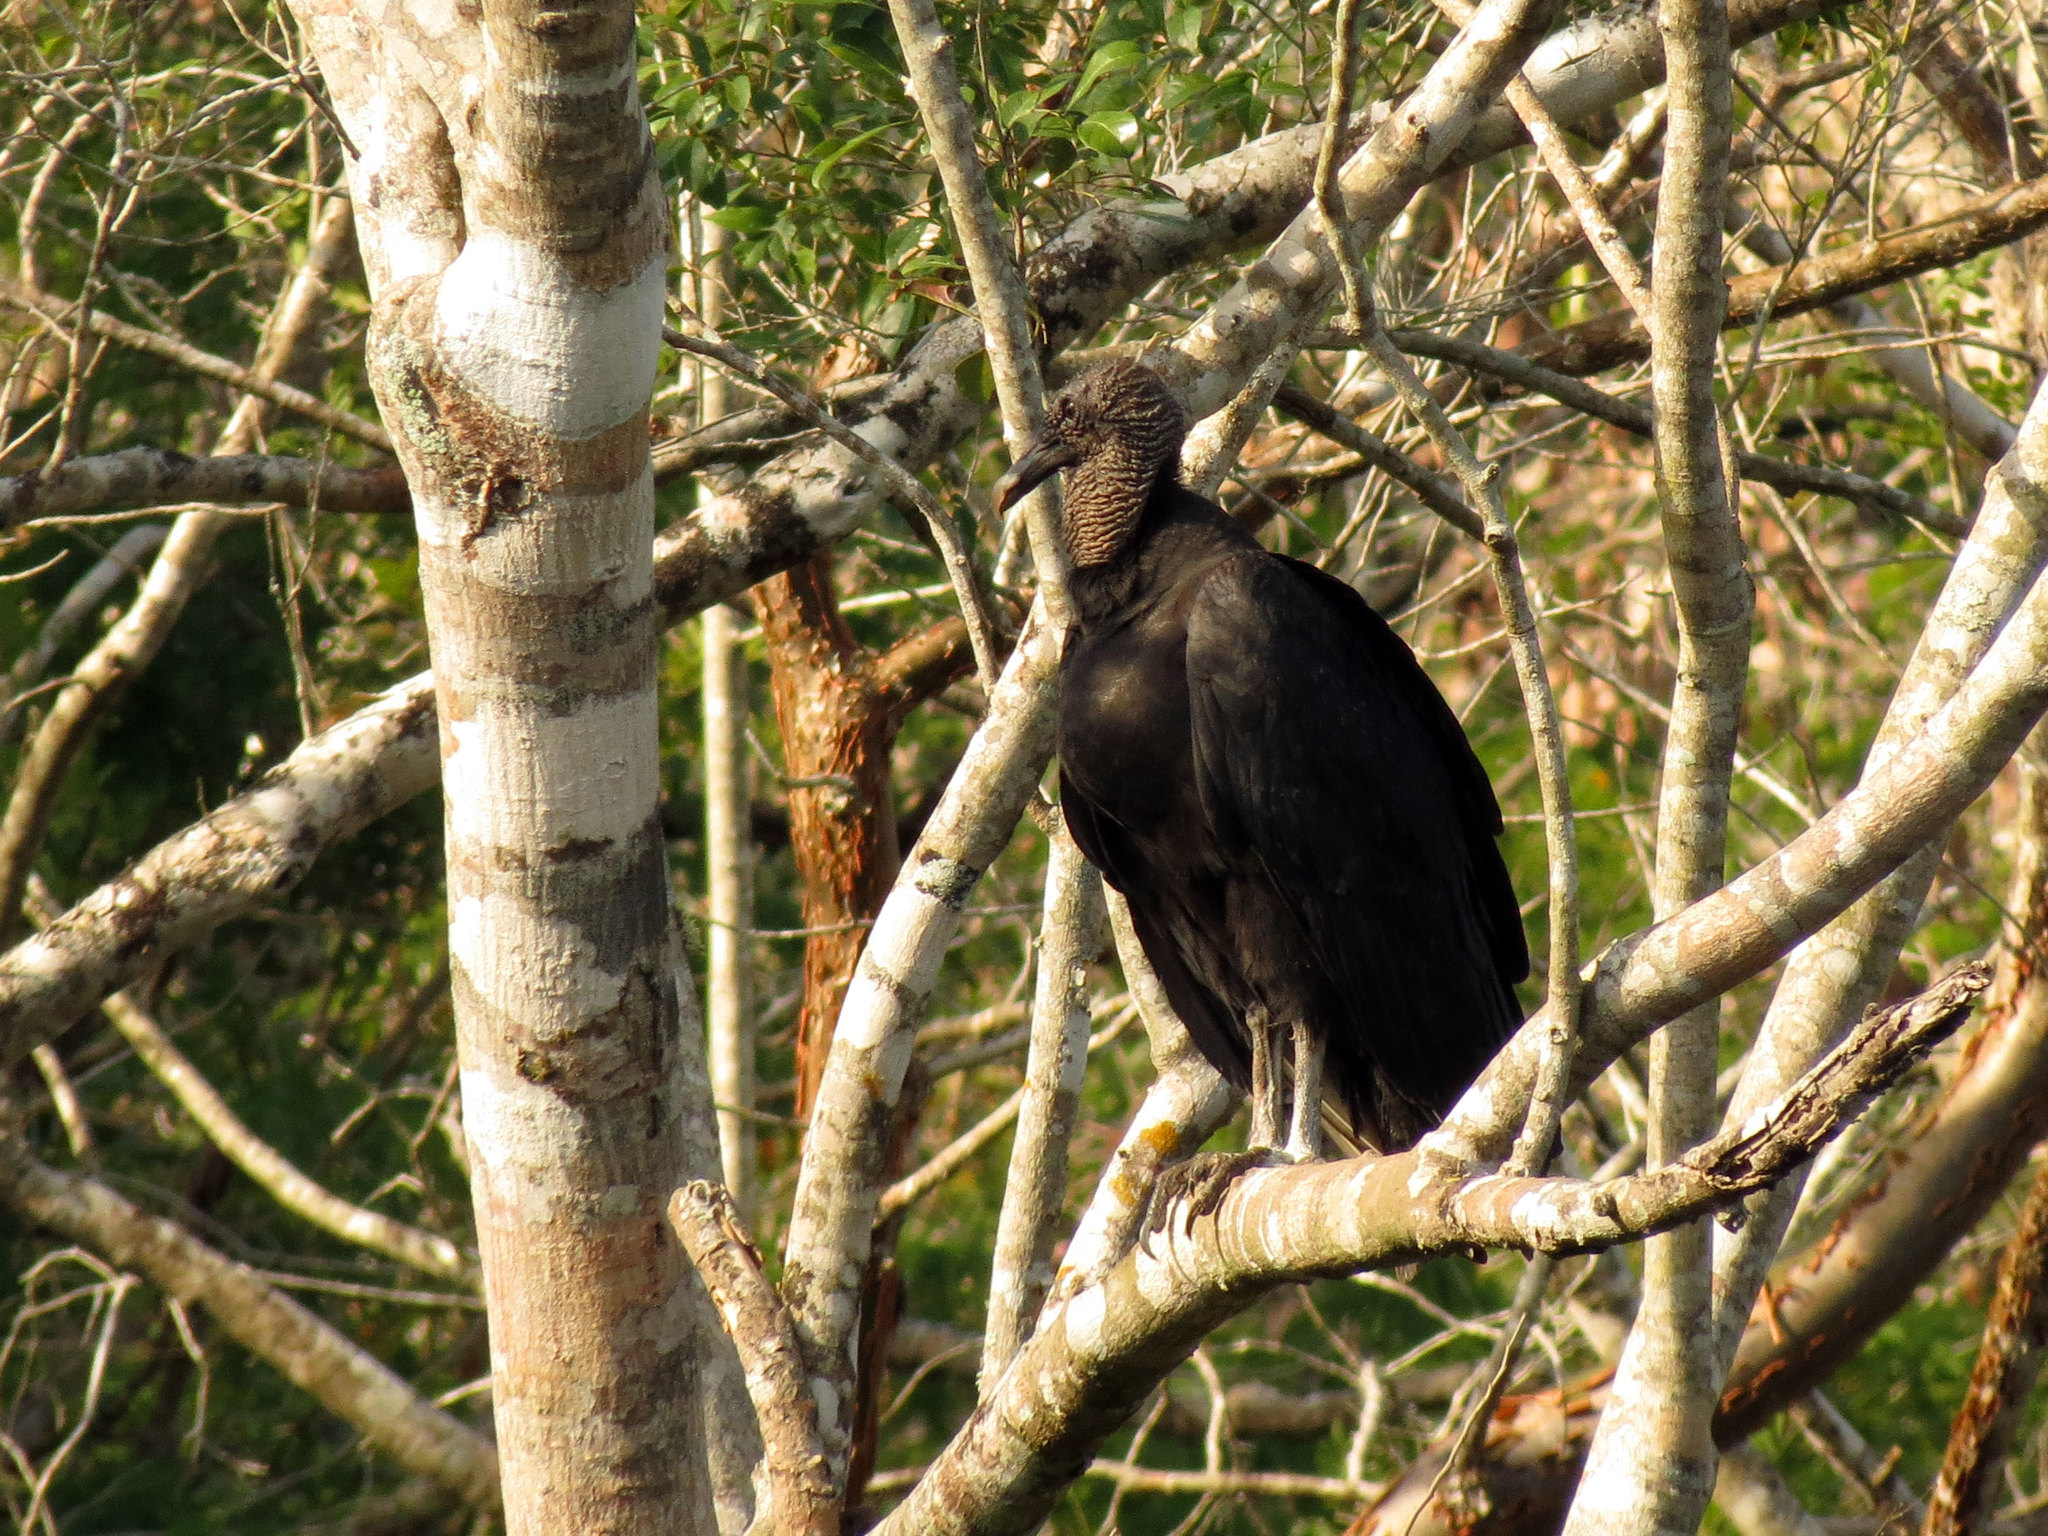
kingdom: Animalia
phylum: Chordata
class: Aves
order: Accipitriformes
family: Cathartidae
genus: Coragyps
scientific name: Coragyps atratus
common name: Black vulture
